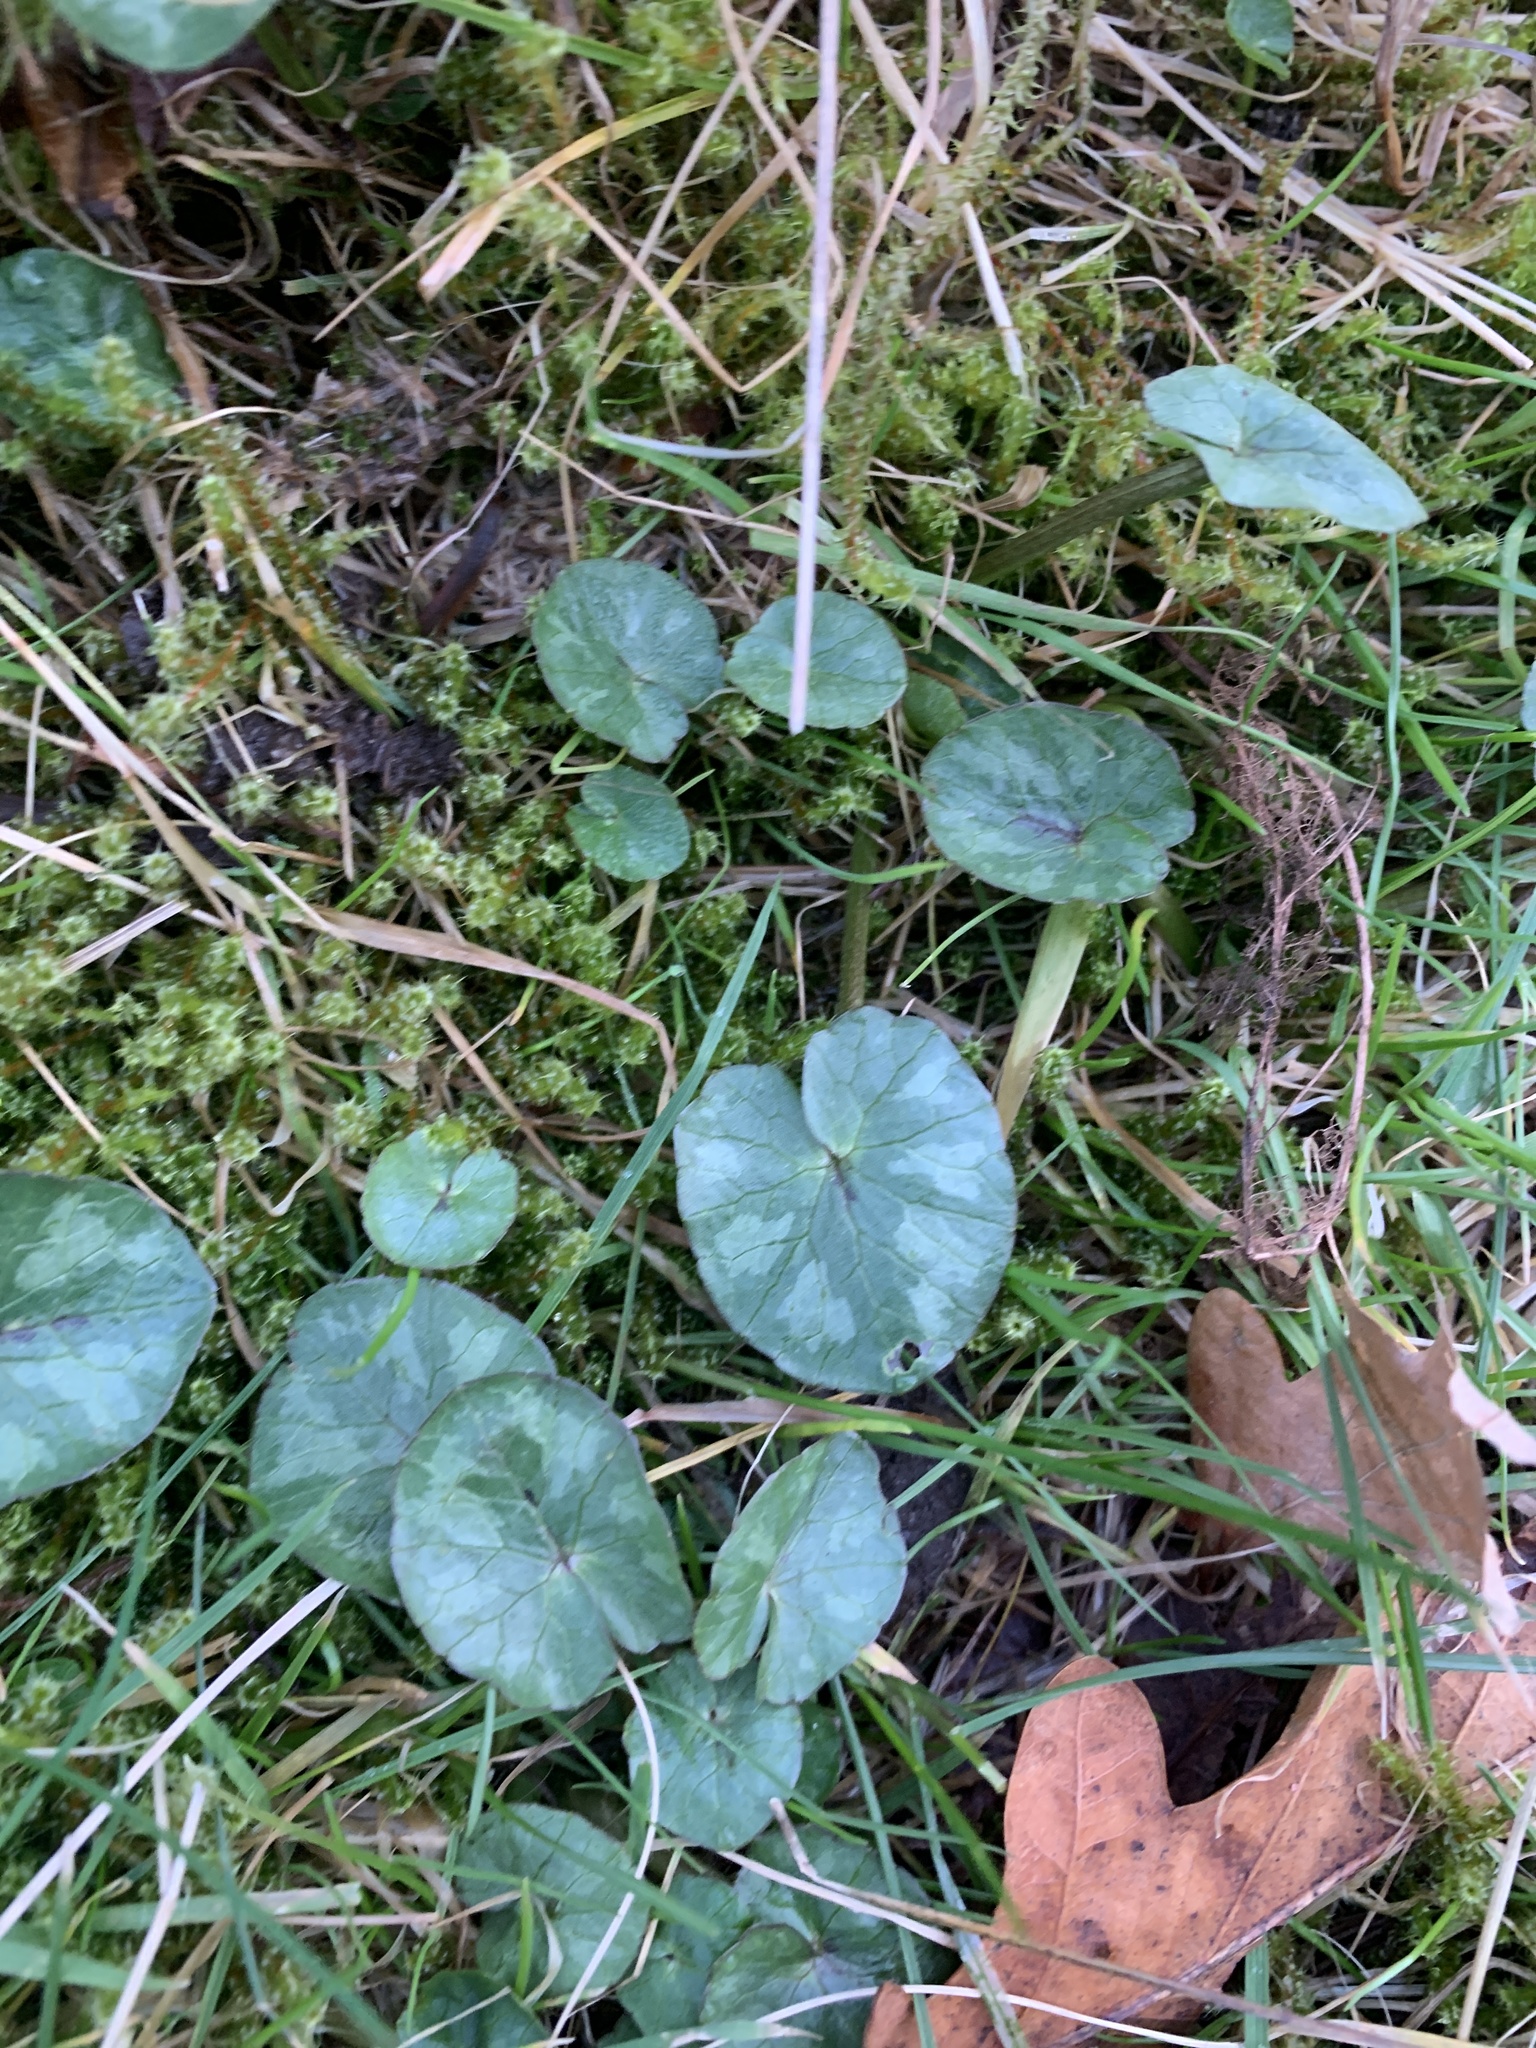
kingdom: Plantae
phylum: Tracheophyta
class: Magnoliopsida
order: Ranunculales
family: Ranunculaceae
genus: Ficaria
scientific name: Ficaria verna
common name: Lesser celandine
